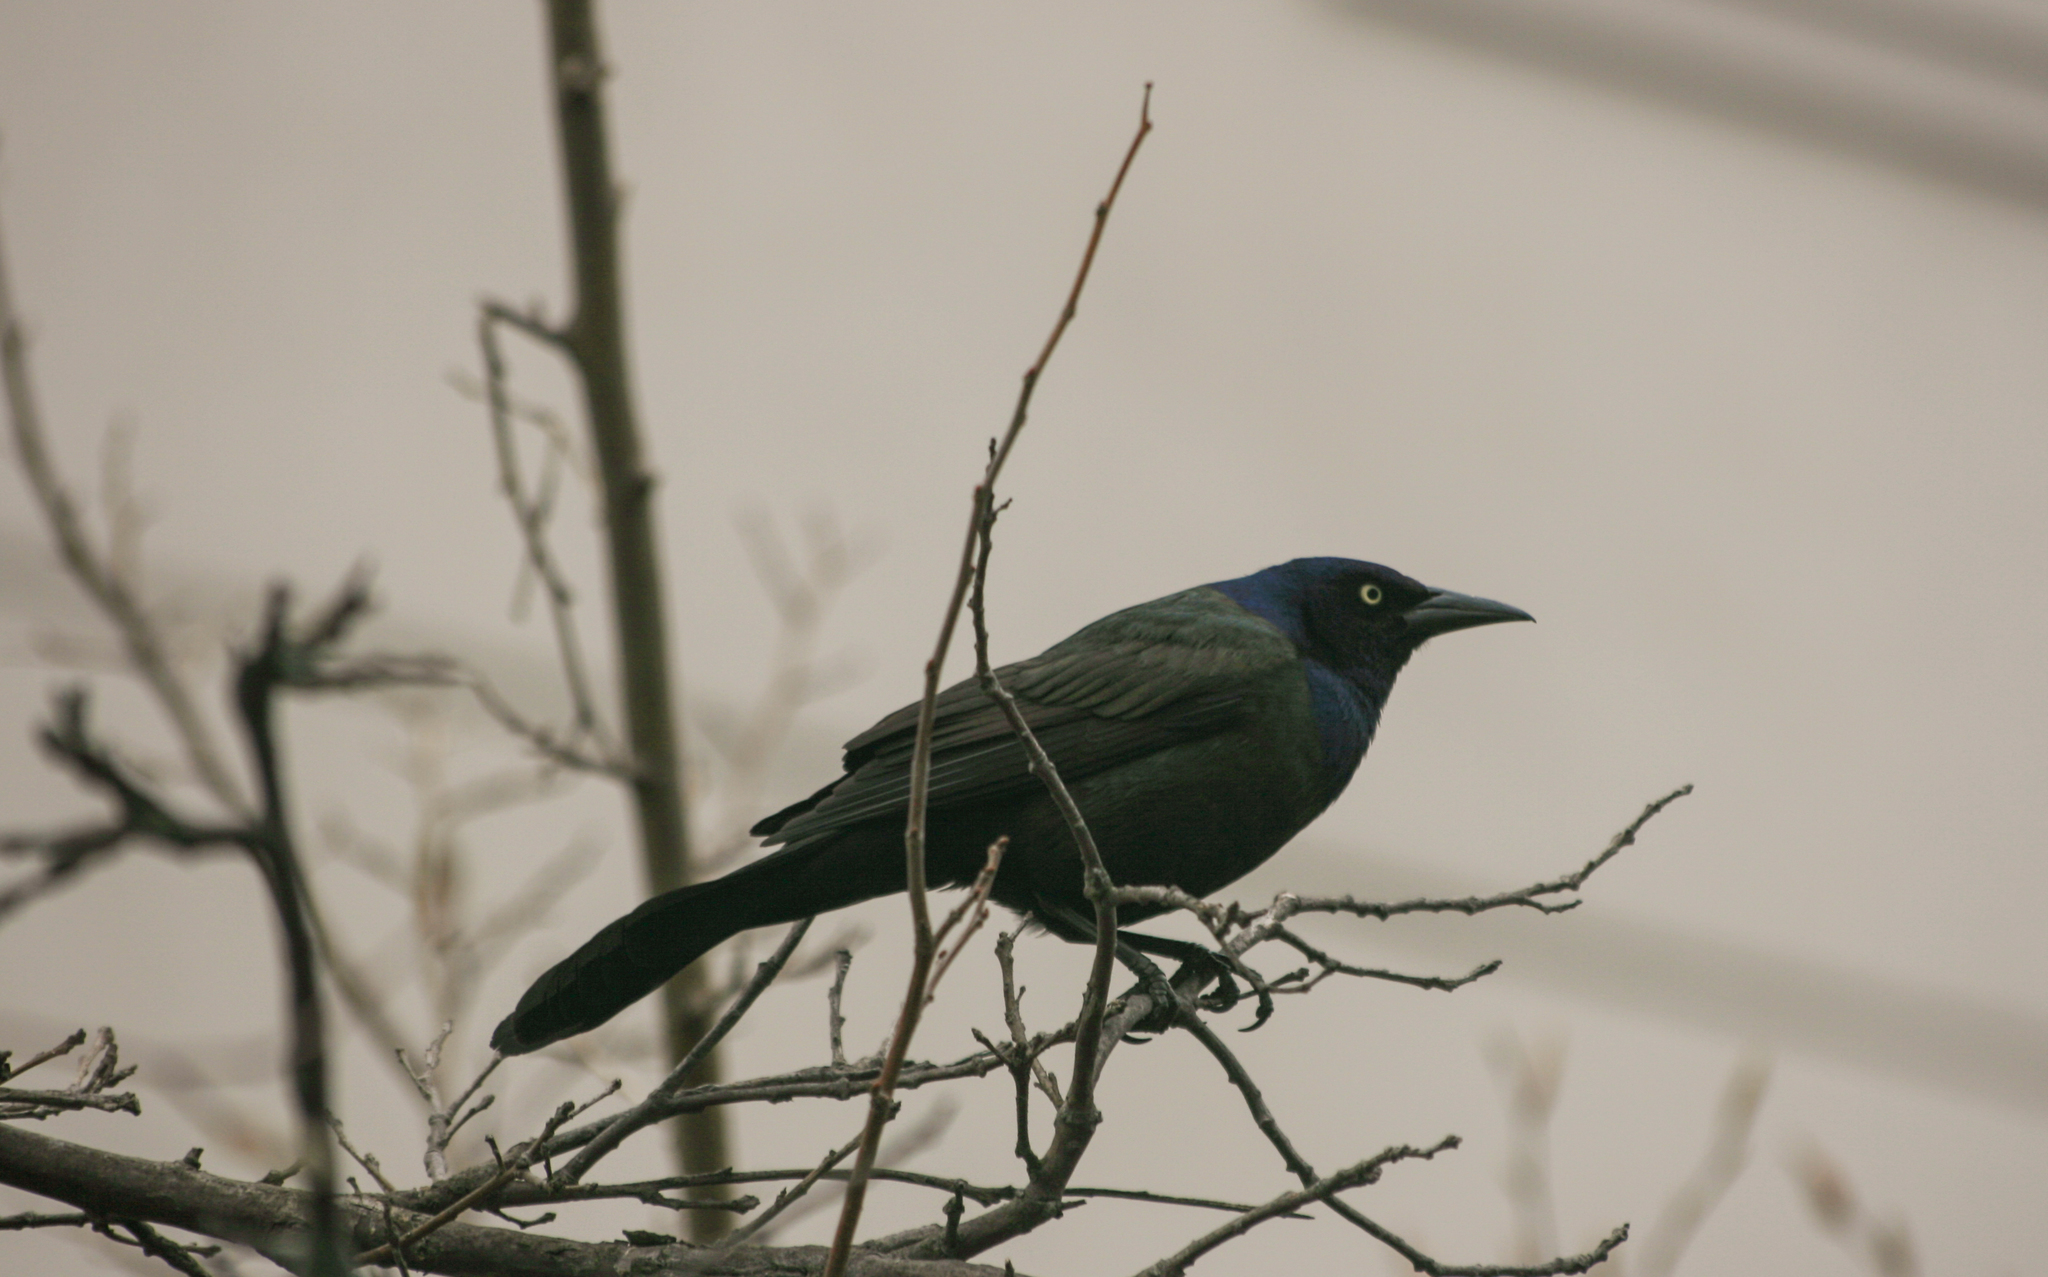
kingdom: Animalia
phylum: Chordata
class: Aves
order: Passeriformes
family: Icteridae
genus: Quiscalus
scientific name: Quiscalus quiscula
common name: Common grackle
